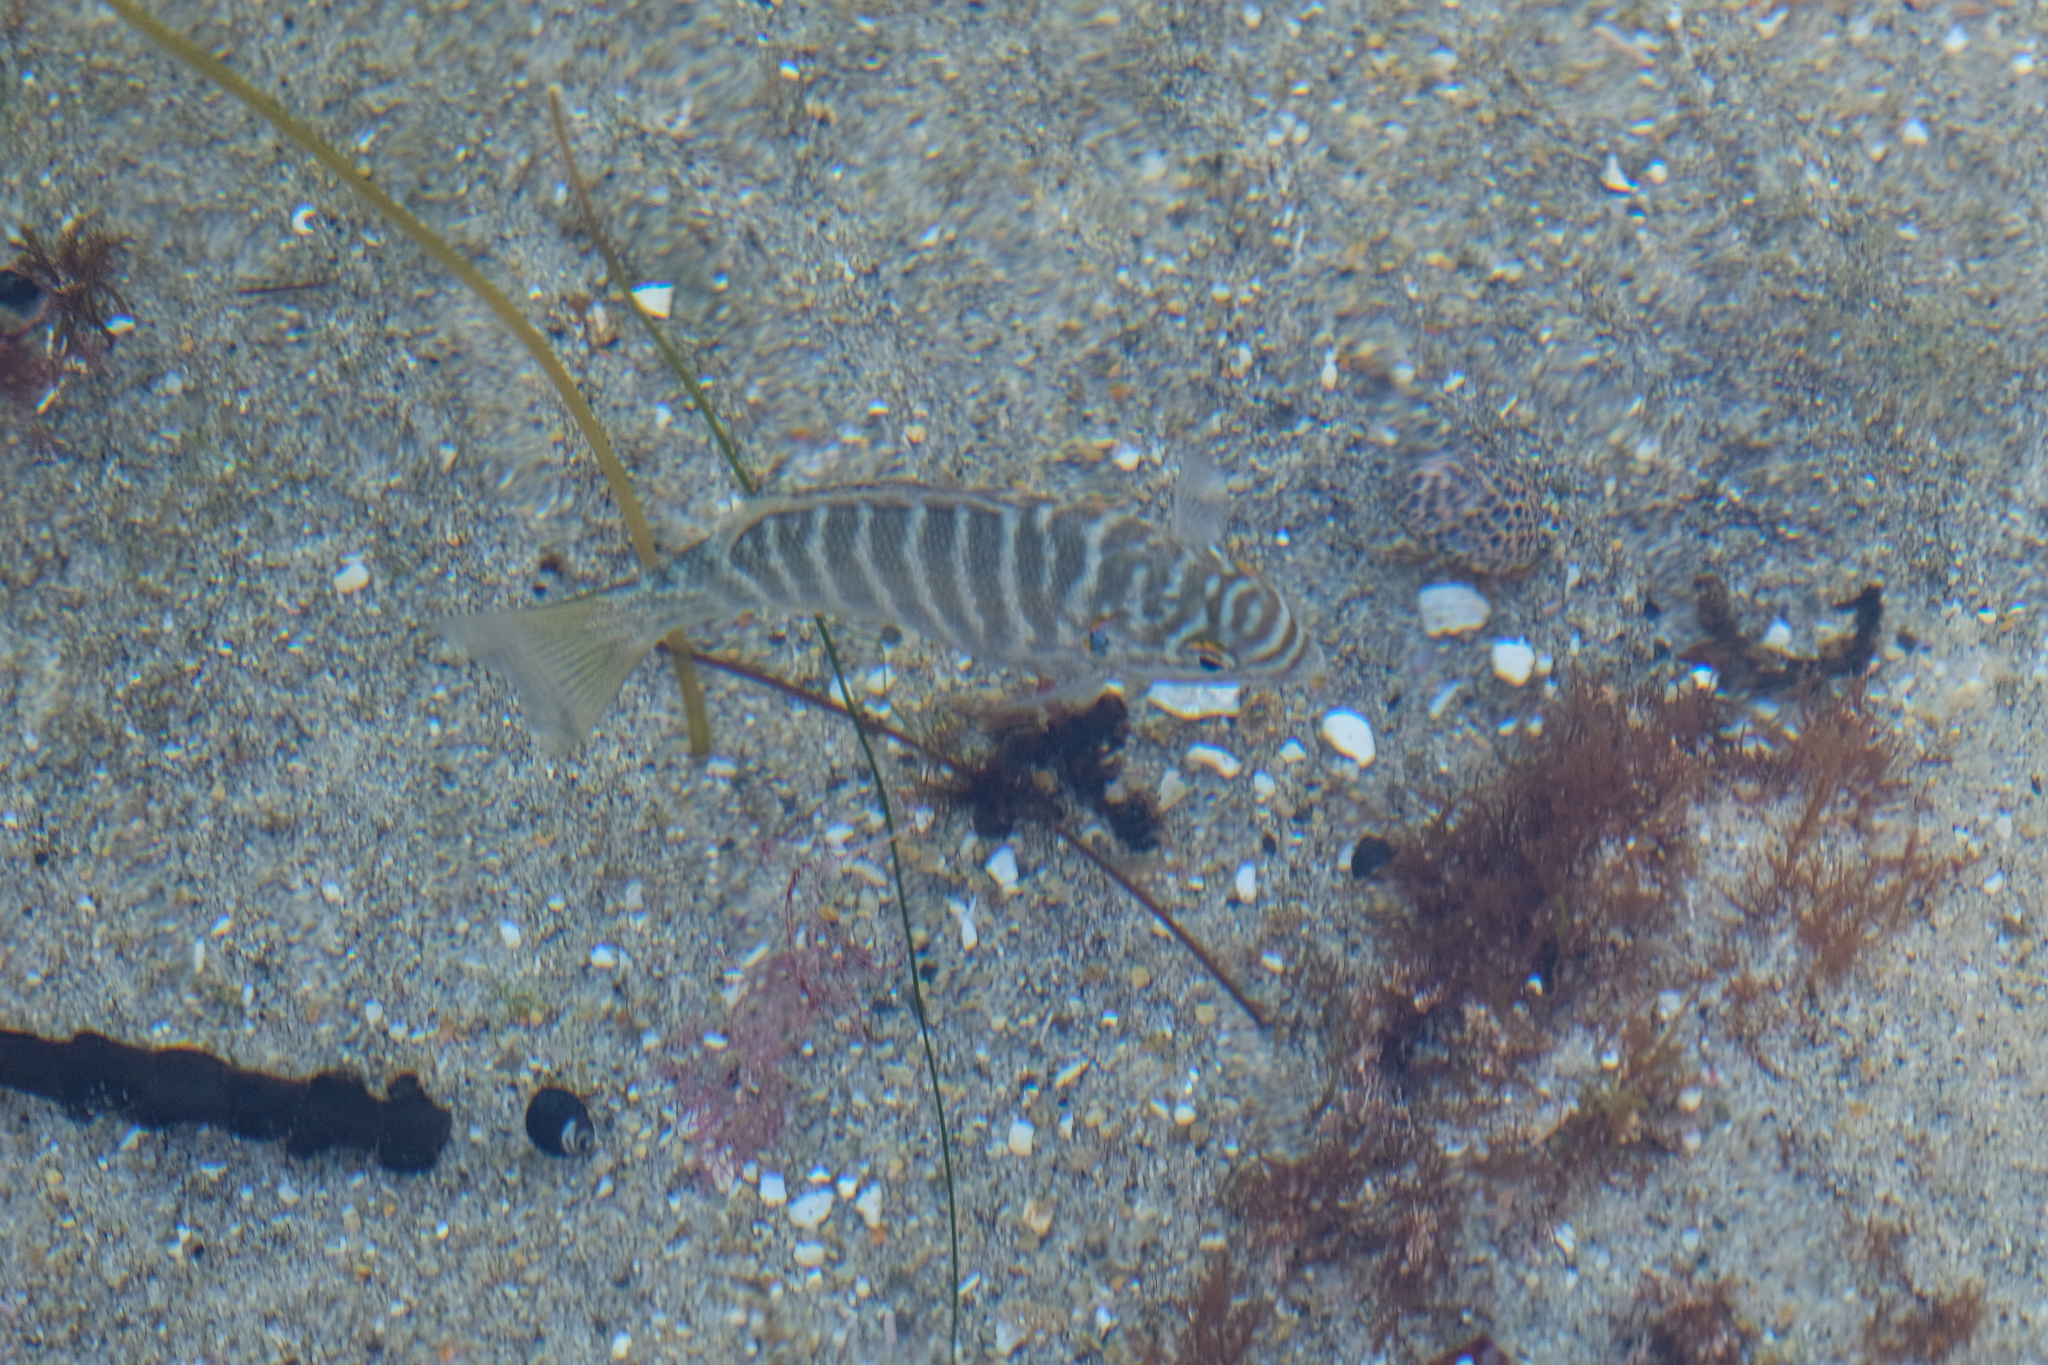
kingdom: Animalia
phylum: Chordata
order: Perciformes
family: Kyphosidae
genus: Kyphosus
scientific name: Kyphosus azureus
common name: Perch
